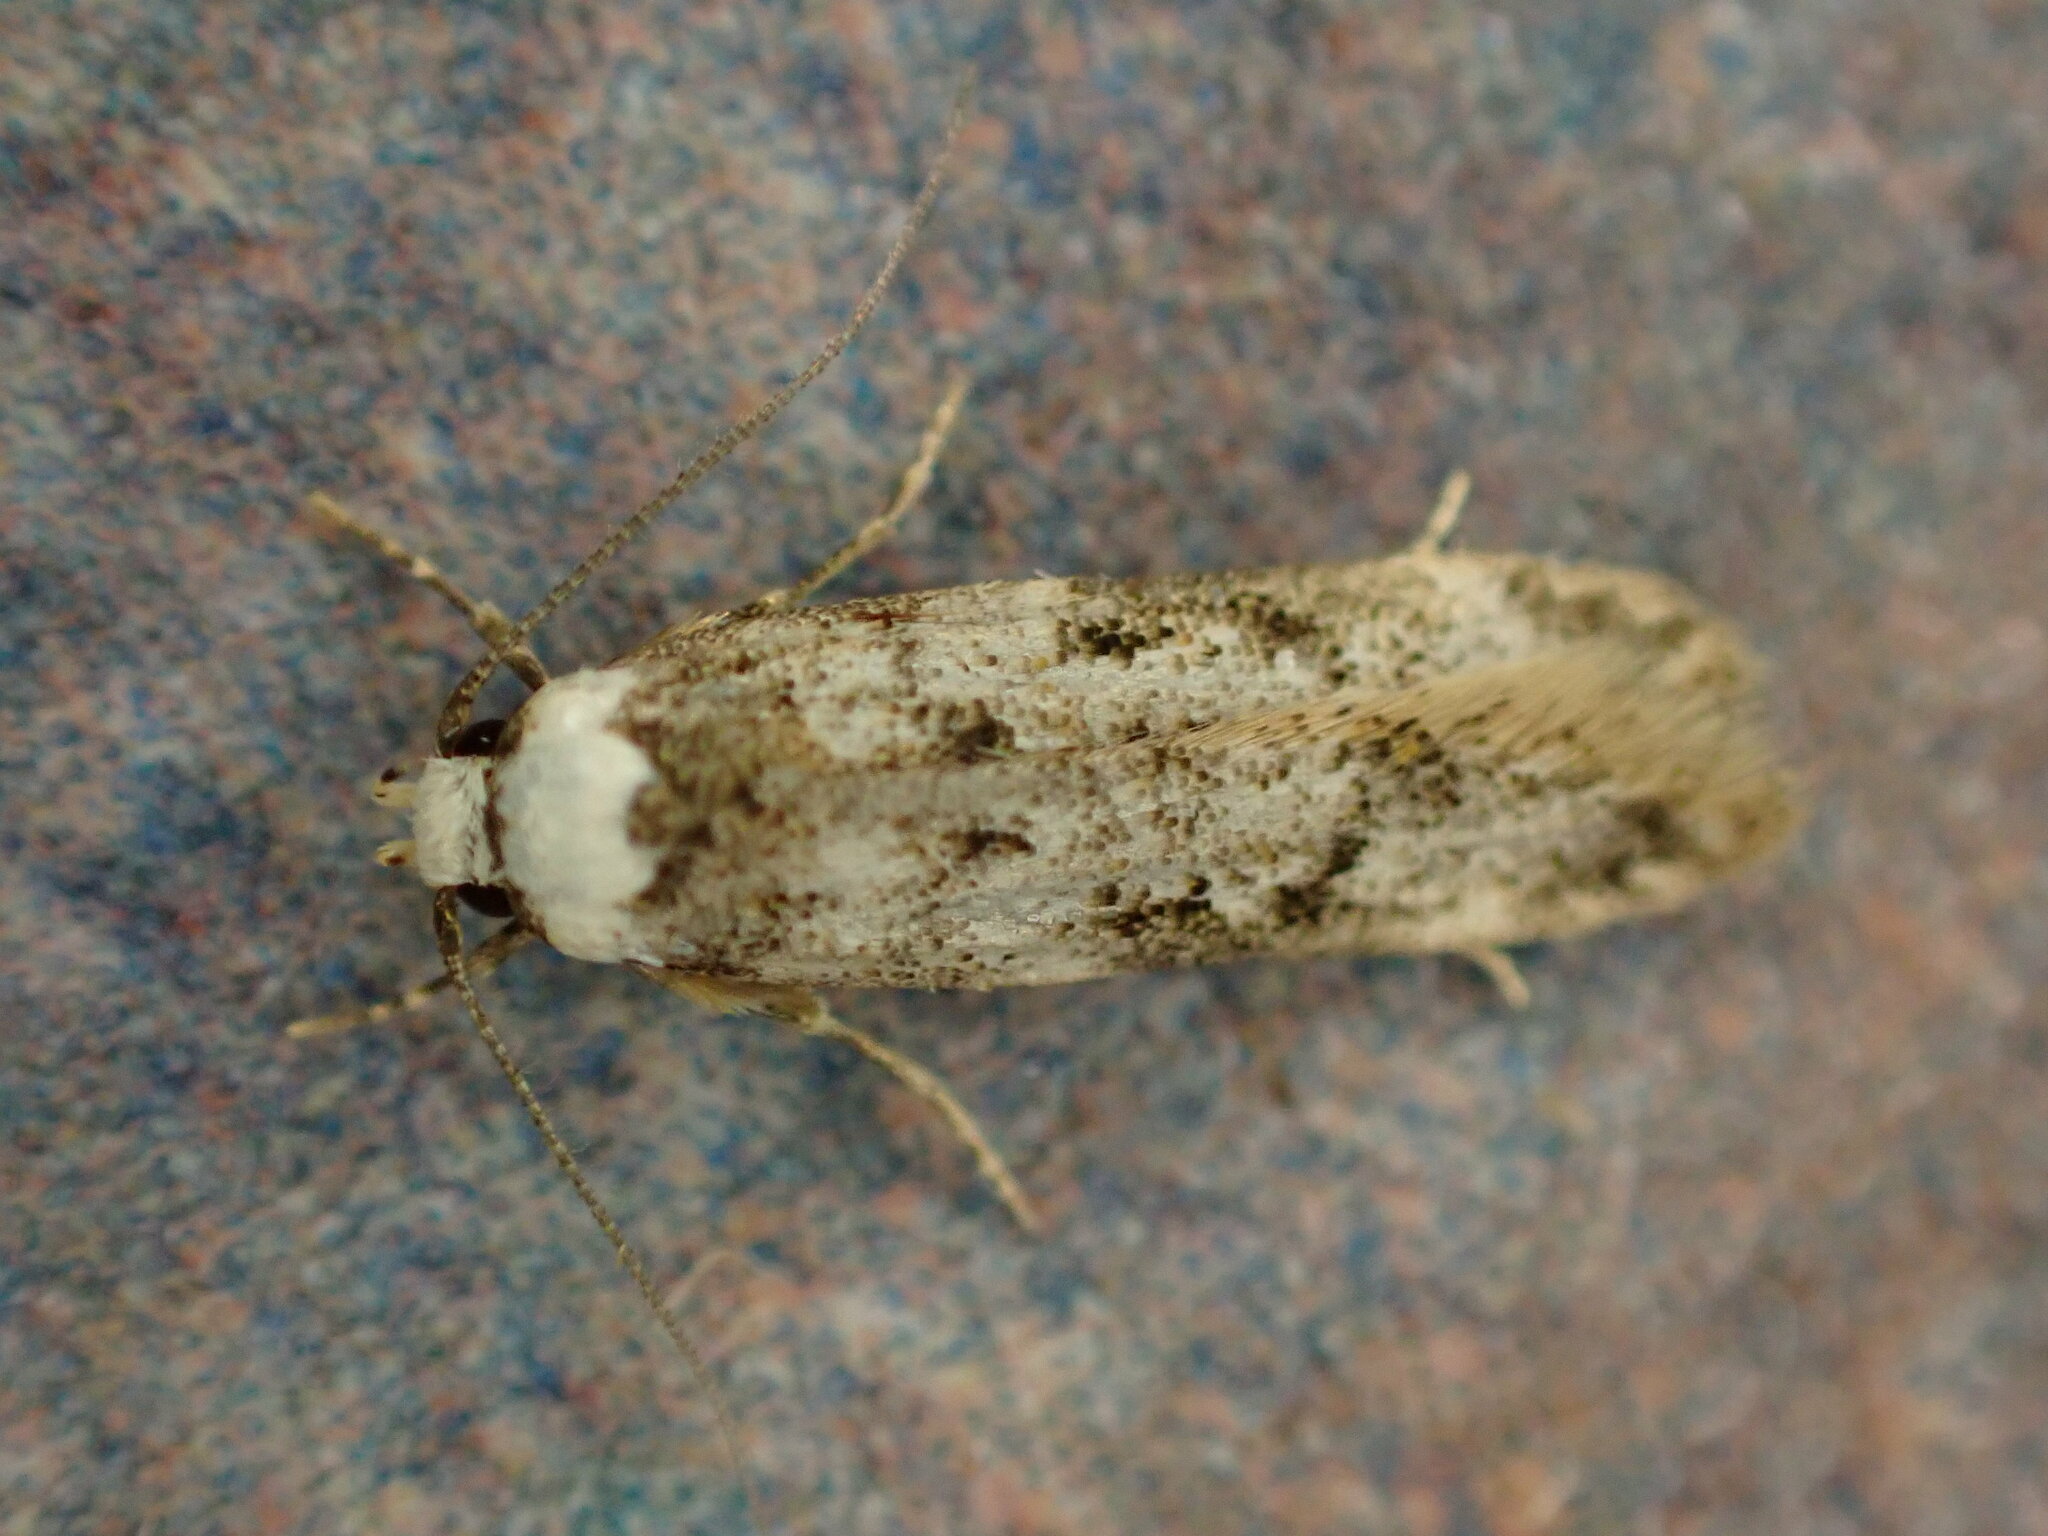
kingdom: Animalia
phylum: Arthropoda
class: Insecta
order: Lepidoptera
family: Oecophoridae
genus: Endrosis
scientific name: Endrosis sarcitrella
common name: White-shouldered house moth
